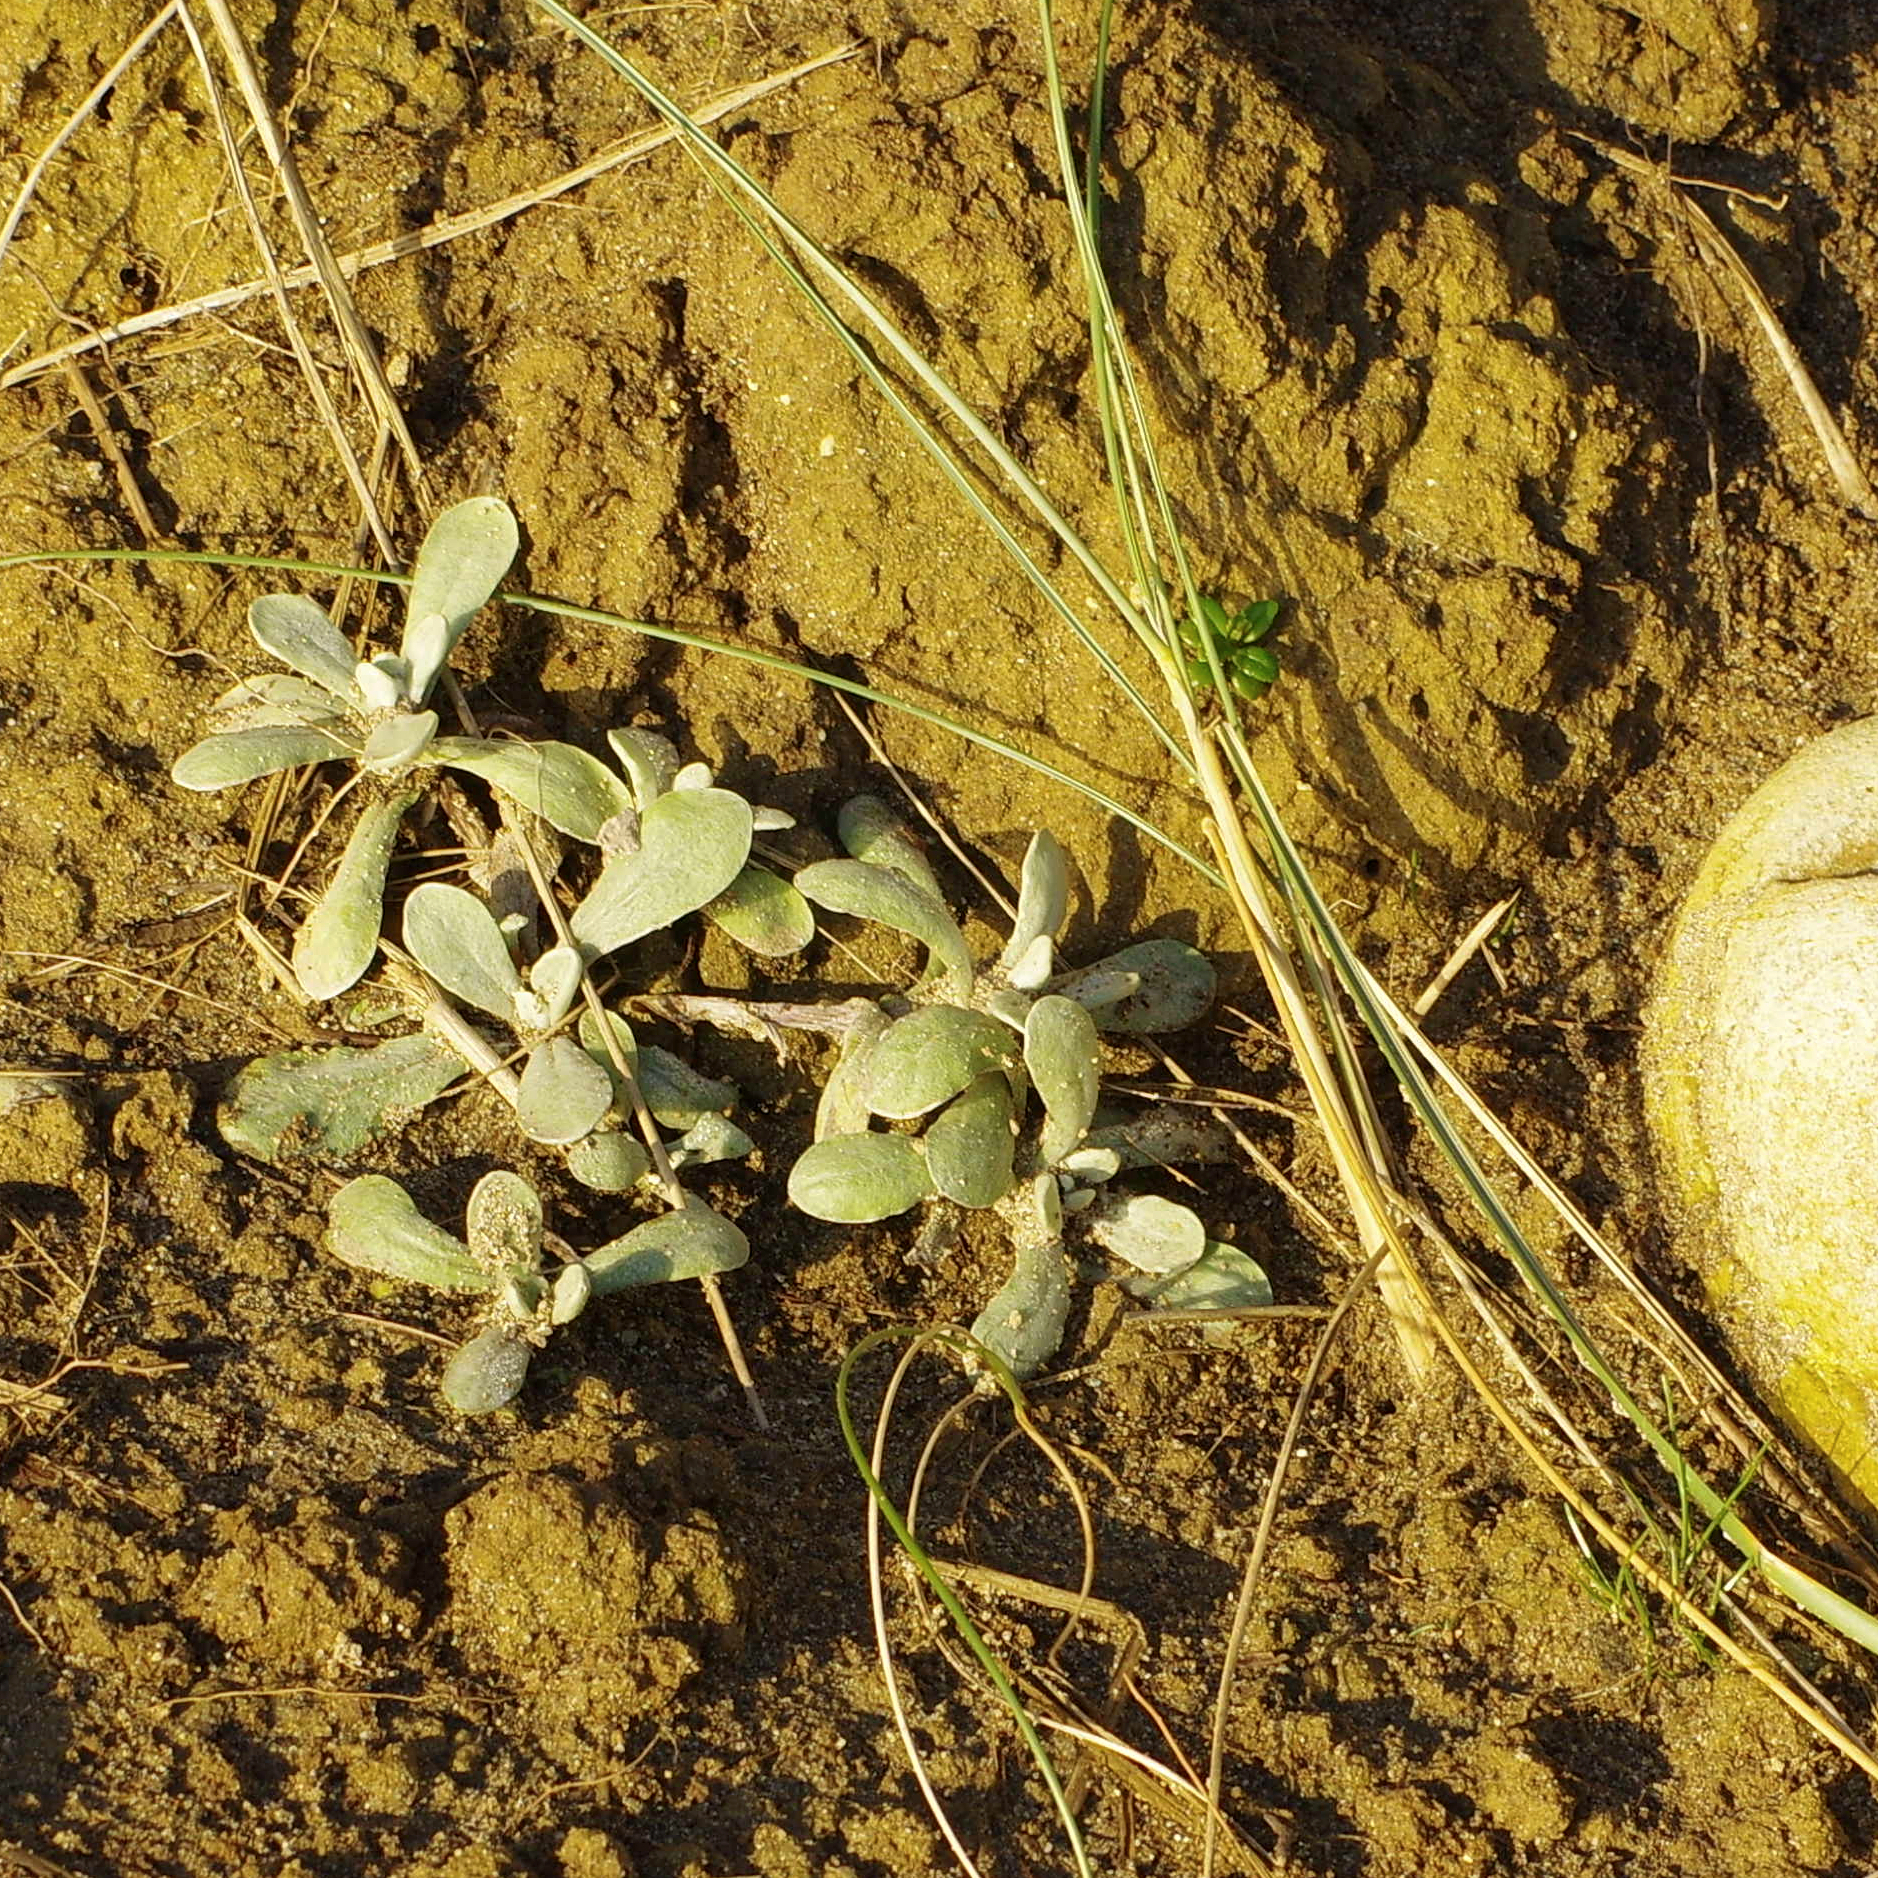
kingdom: Plantae
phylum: Tracheophyta
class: Magnoliopsida
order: Asterales
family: Asteraceae
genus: Helichrysum
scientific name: Helichrysum luteoalbum
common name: Daisy
